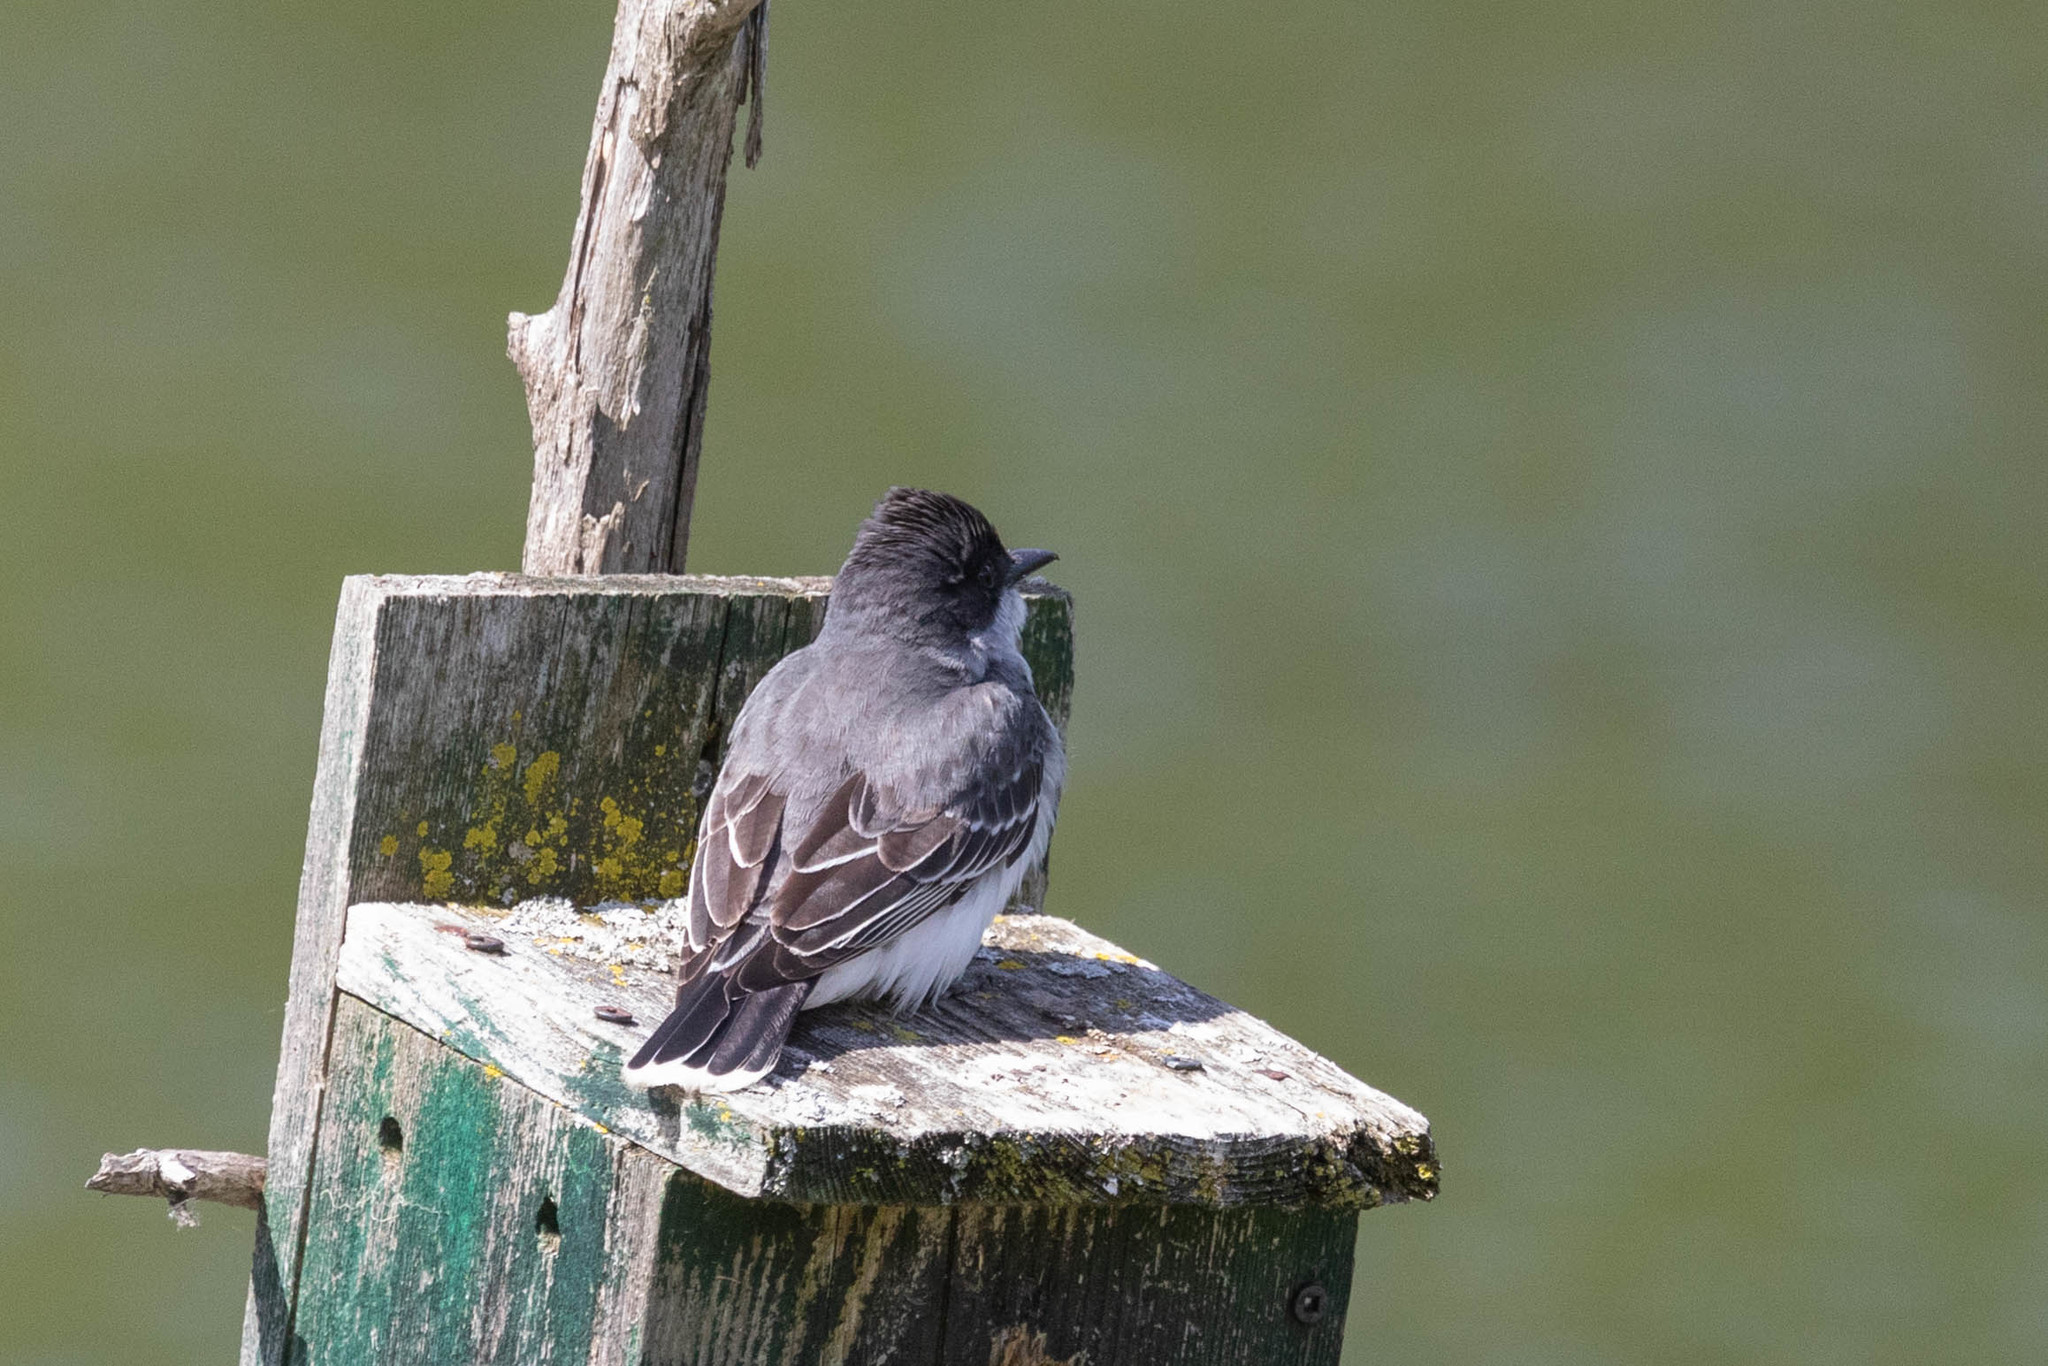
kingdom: Animalia
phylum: Chordata
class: Aves
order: Passeriformes
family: Tyrannidae
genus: Tyrannus
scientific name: Tyrannus tyrannus
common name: Eastern kingbird
